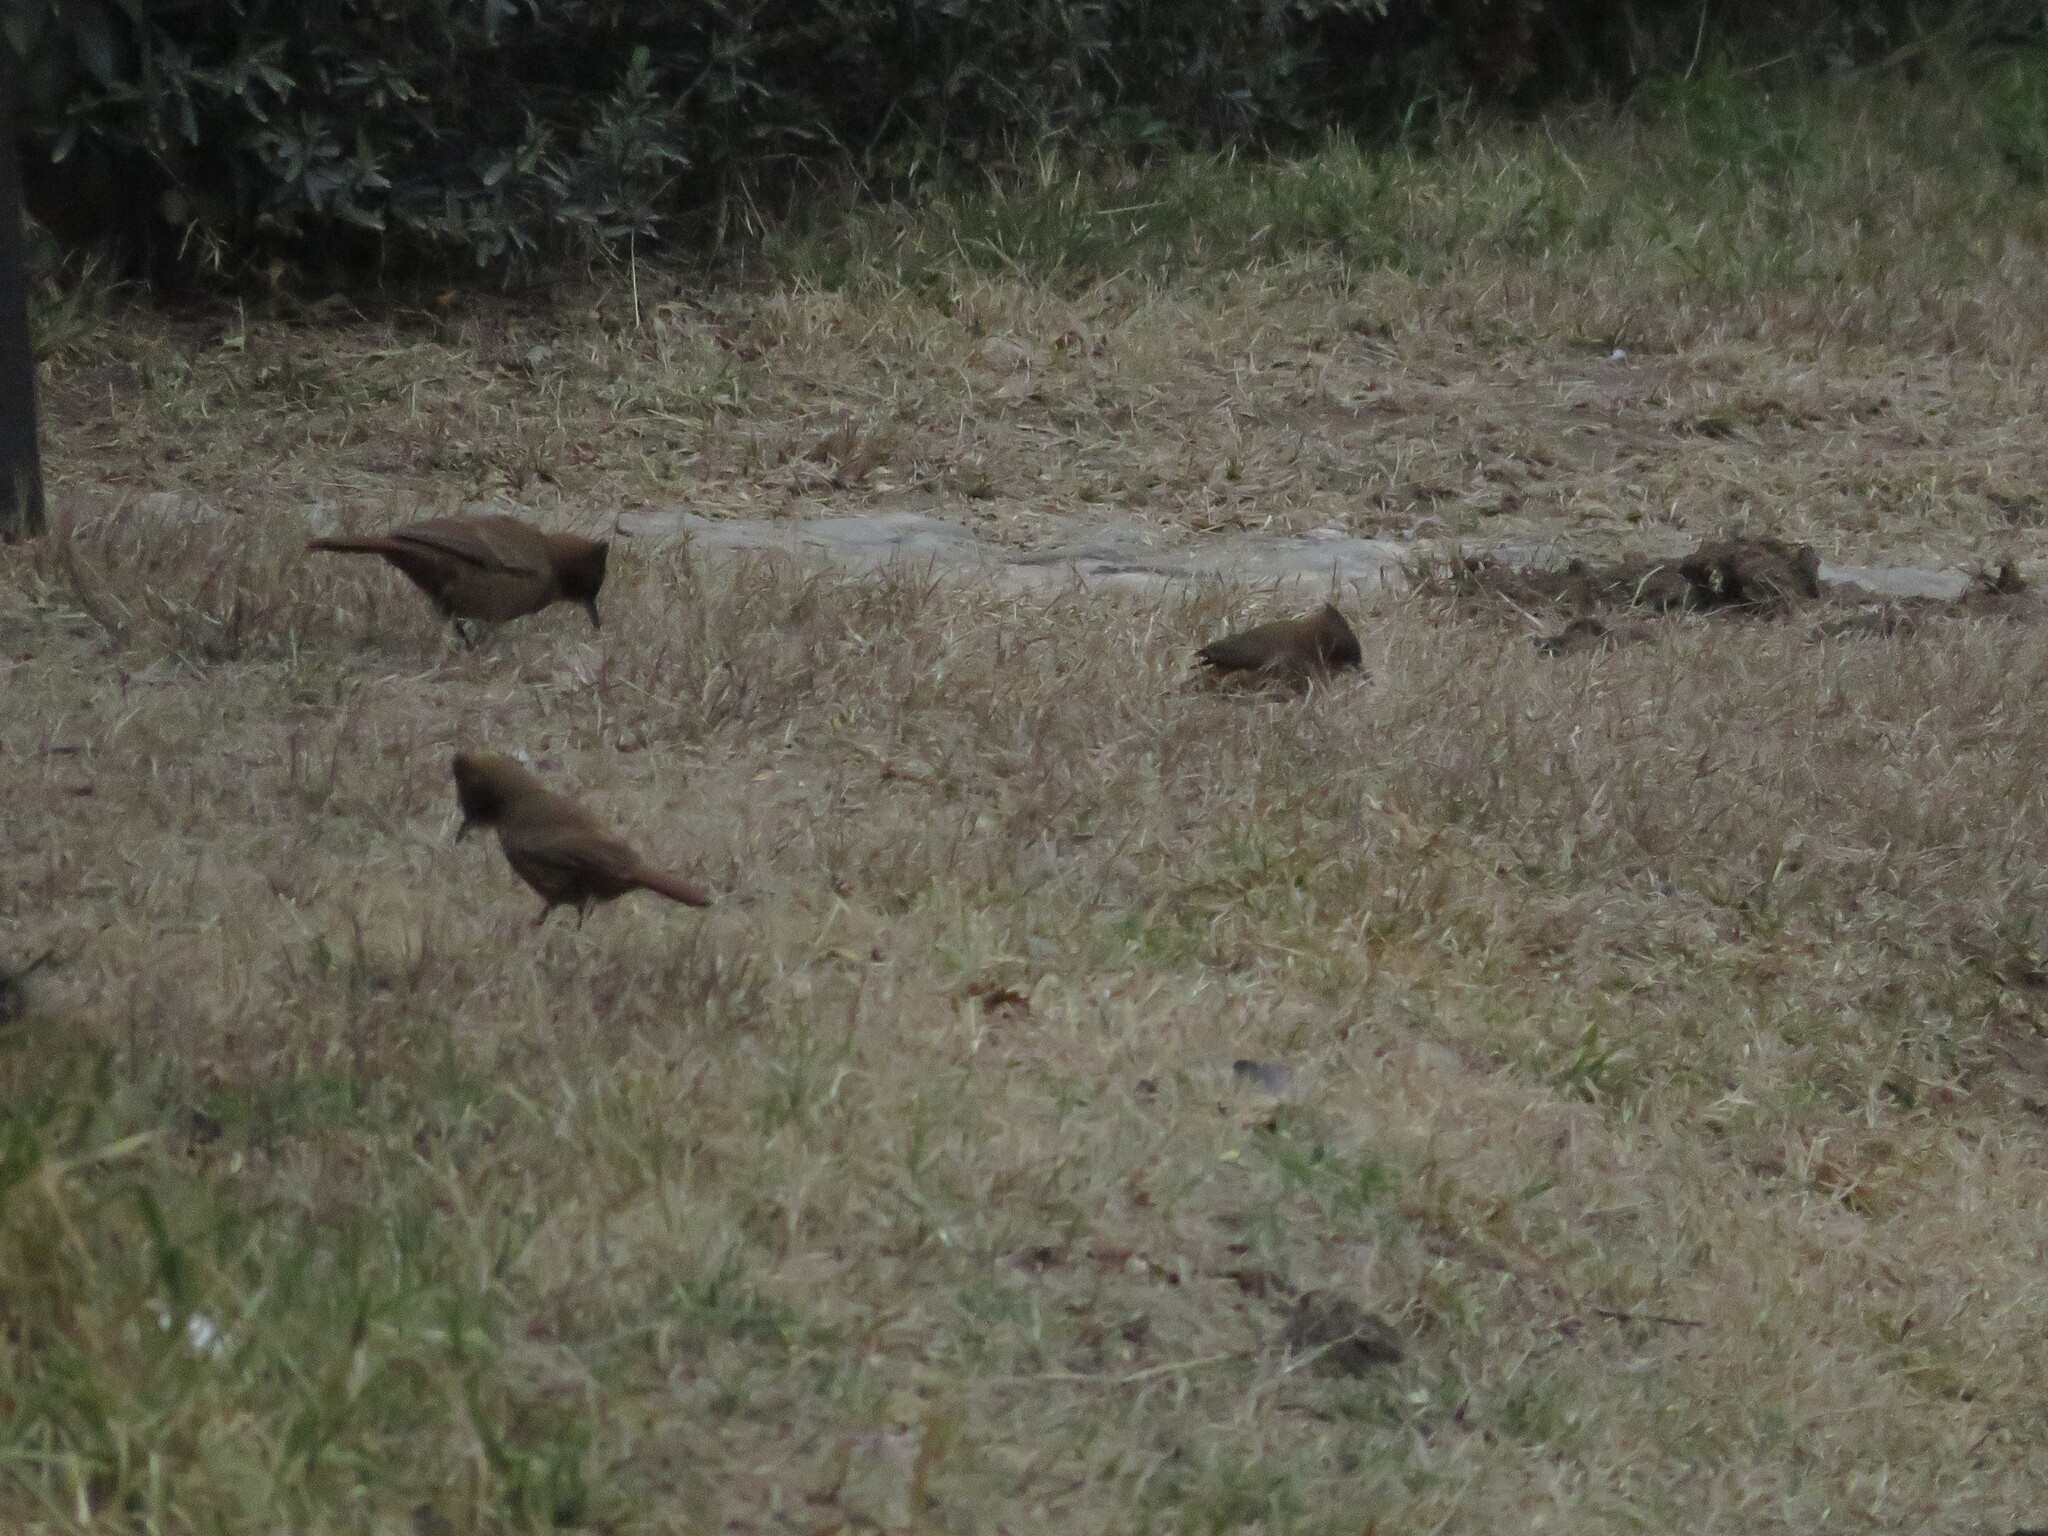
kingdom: Animalia
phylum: Chordata
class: Aves
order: Passeriformes
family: Furnariidae
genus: Pseudoseisura
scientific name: Pseudoseisura lophotes
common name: Brown cacholote
